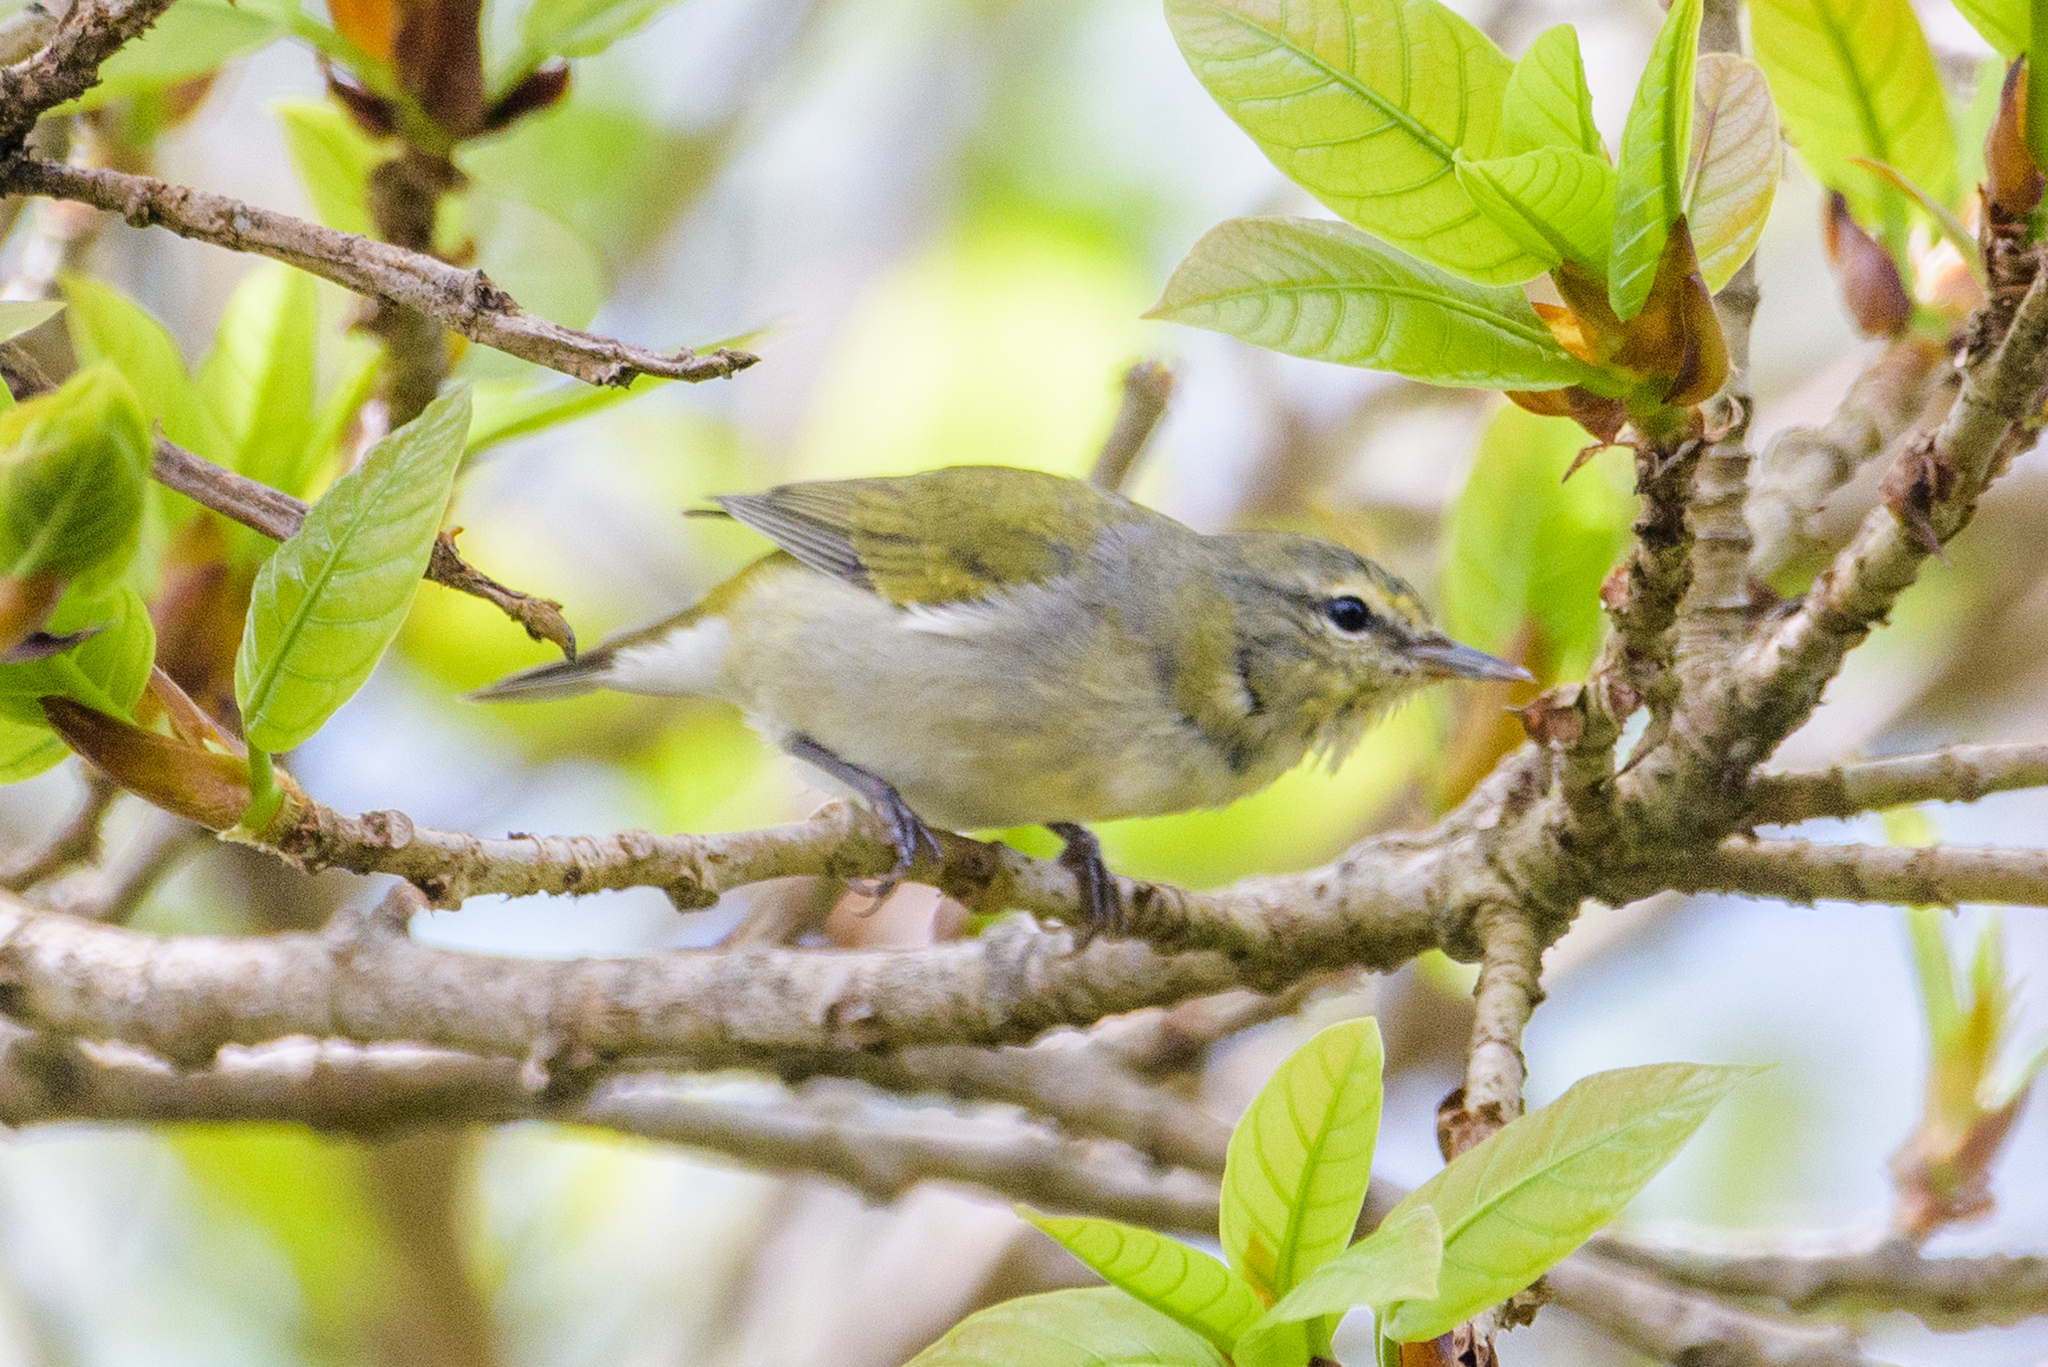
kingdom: Animalia
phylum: Chordata
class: Aves
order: Passeriformes
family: Parulidae
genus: Leiothlypis
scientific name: Leiothlypis peregrina
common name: Tennessee warbler
